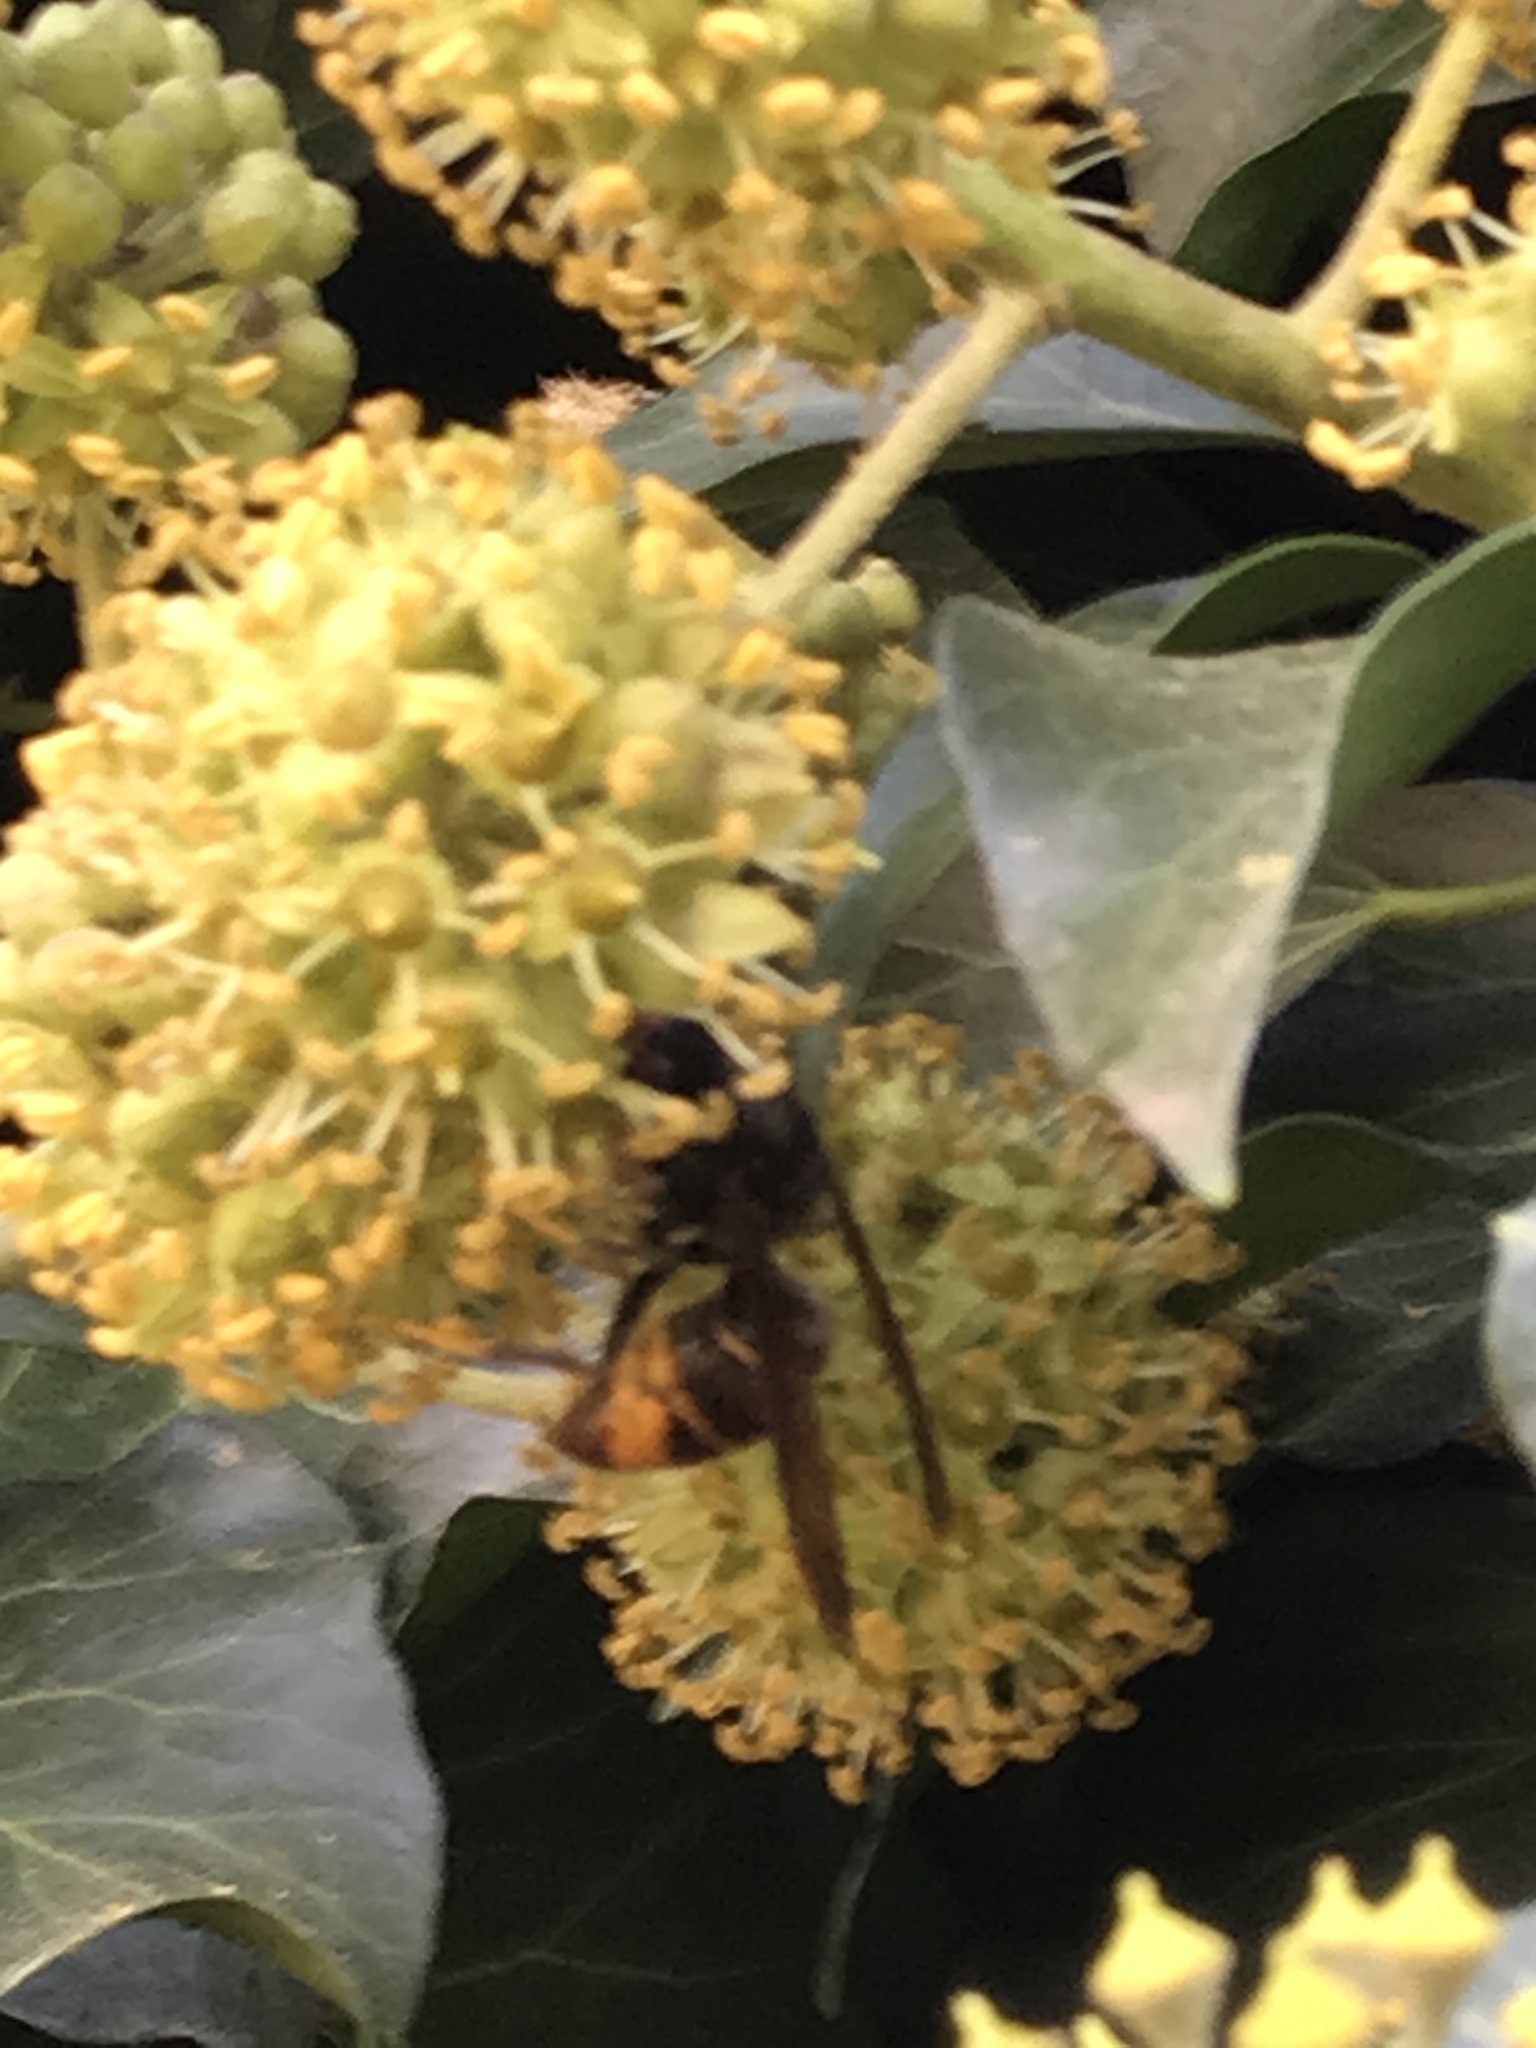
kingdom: Animalia
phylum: Arthropoda
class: Insecta
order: Hymenoptera
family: Vespidae
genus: Vespa
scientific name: Vespa velutina
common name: Asian hornet
